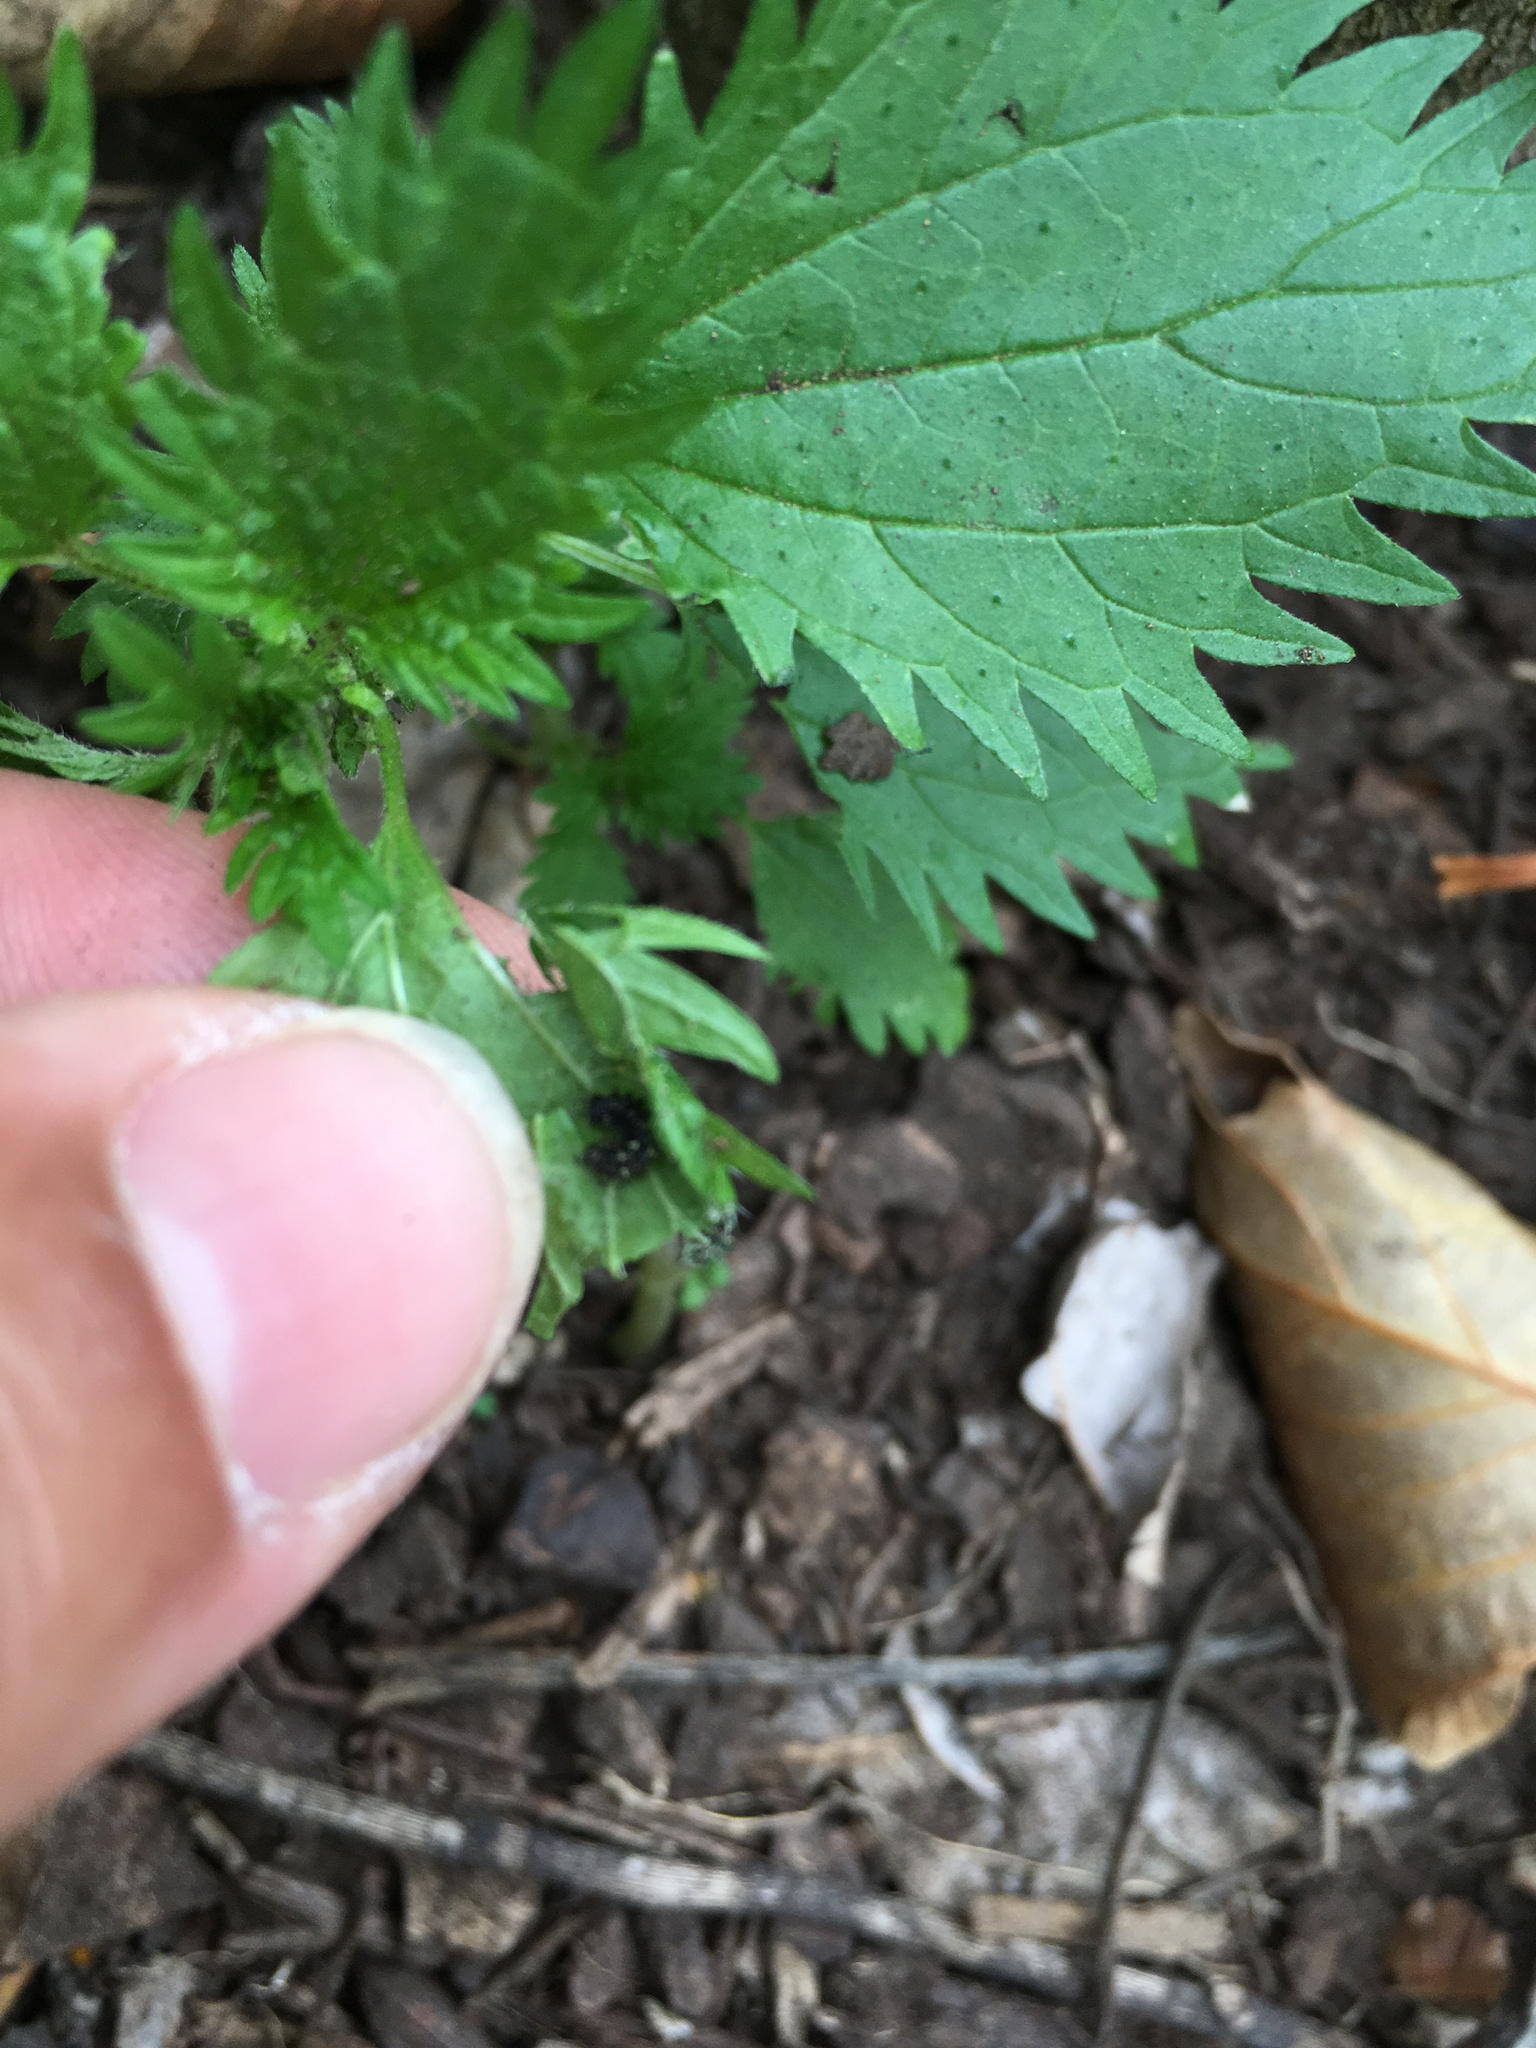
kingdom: Animalia
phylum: Arthropoda
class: Insecta
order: Lepidoptera
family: Nymphalidae
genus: Vanessa
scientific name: Vanessa itea
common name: Yellow admiral
